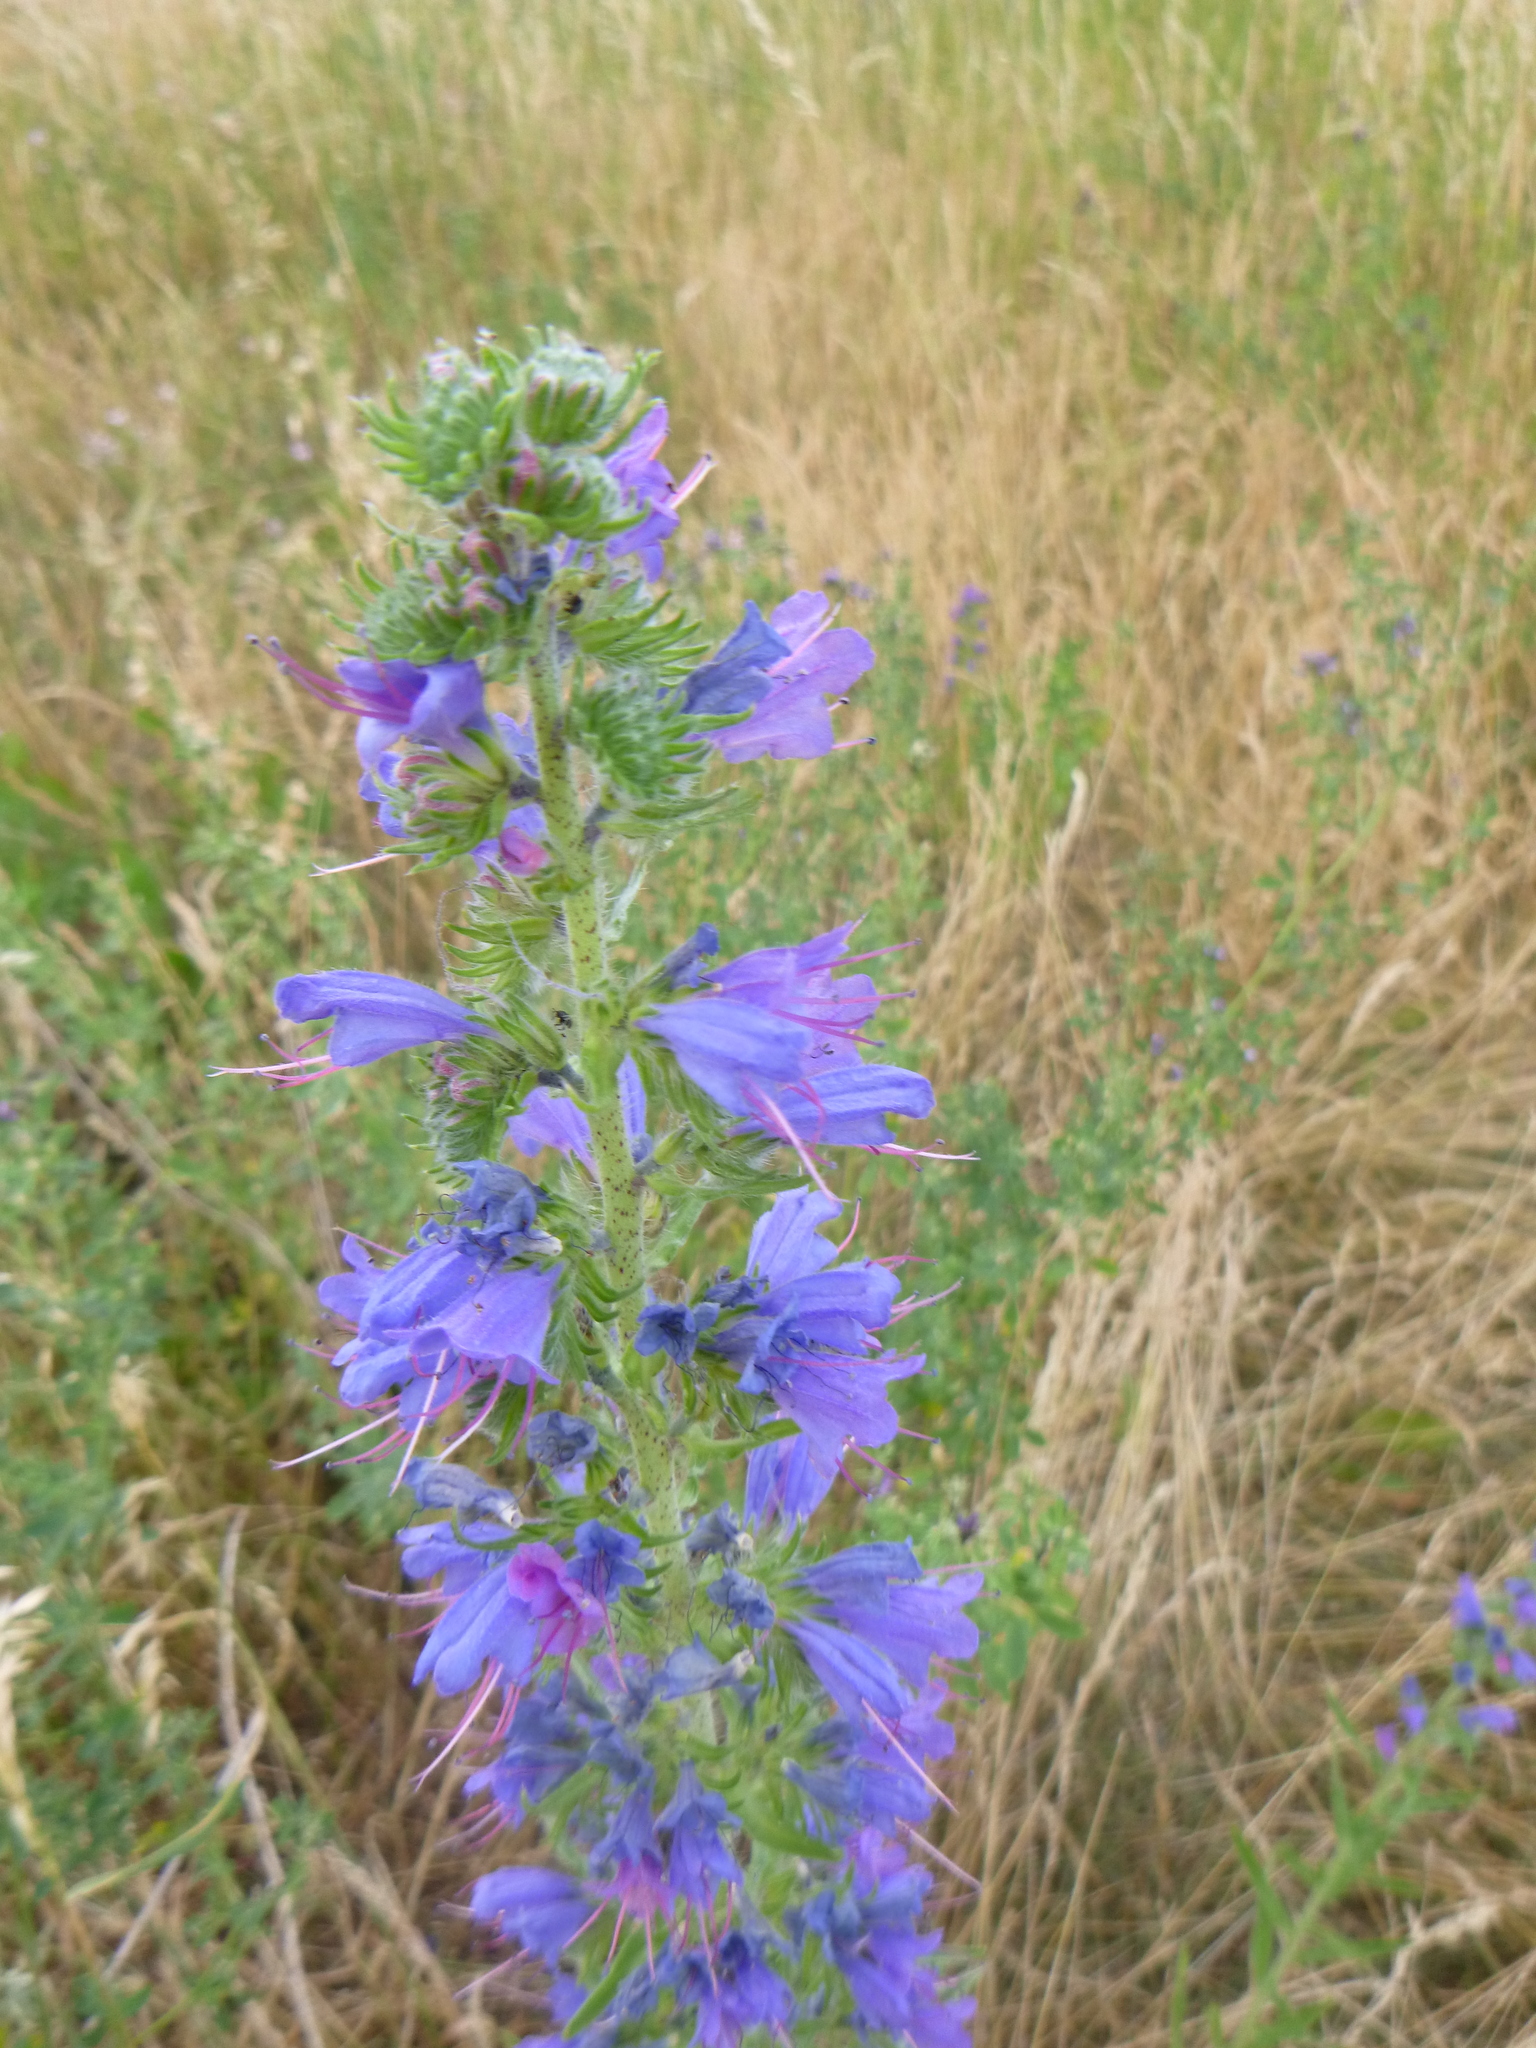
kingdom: Plantae
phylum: Tracheophyta
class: Magnoliopsida
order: Boraginales
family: Boraginaceae
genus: Echium
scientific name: Echium vulgare
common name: Common viper's bugloss
